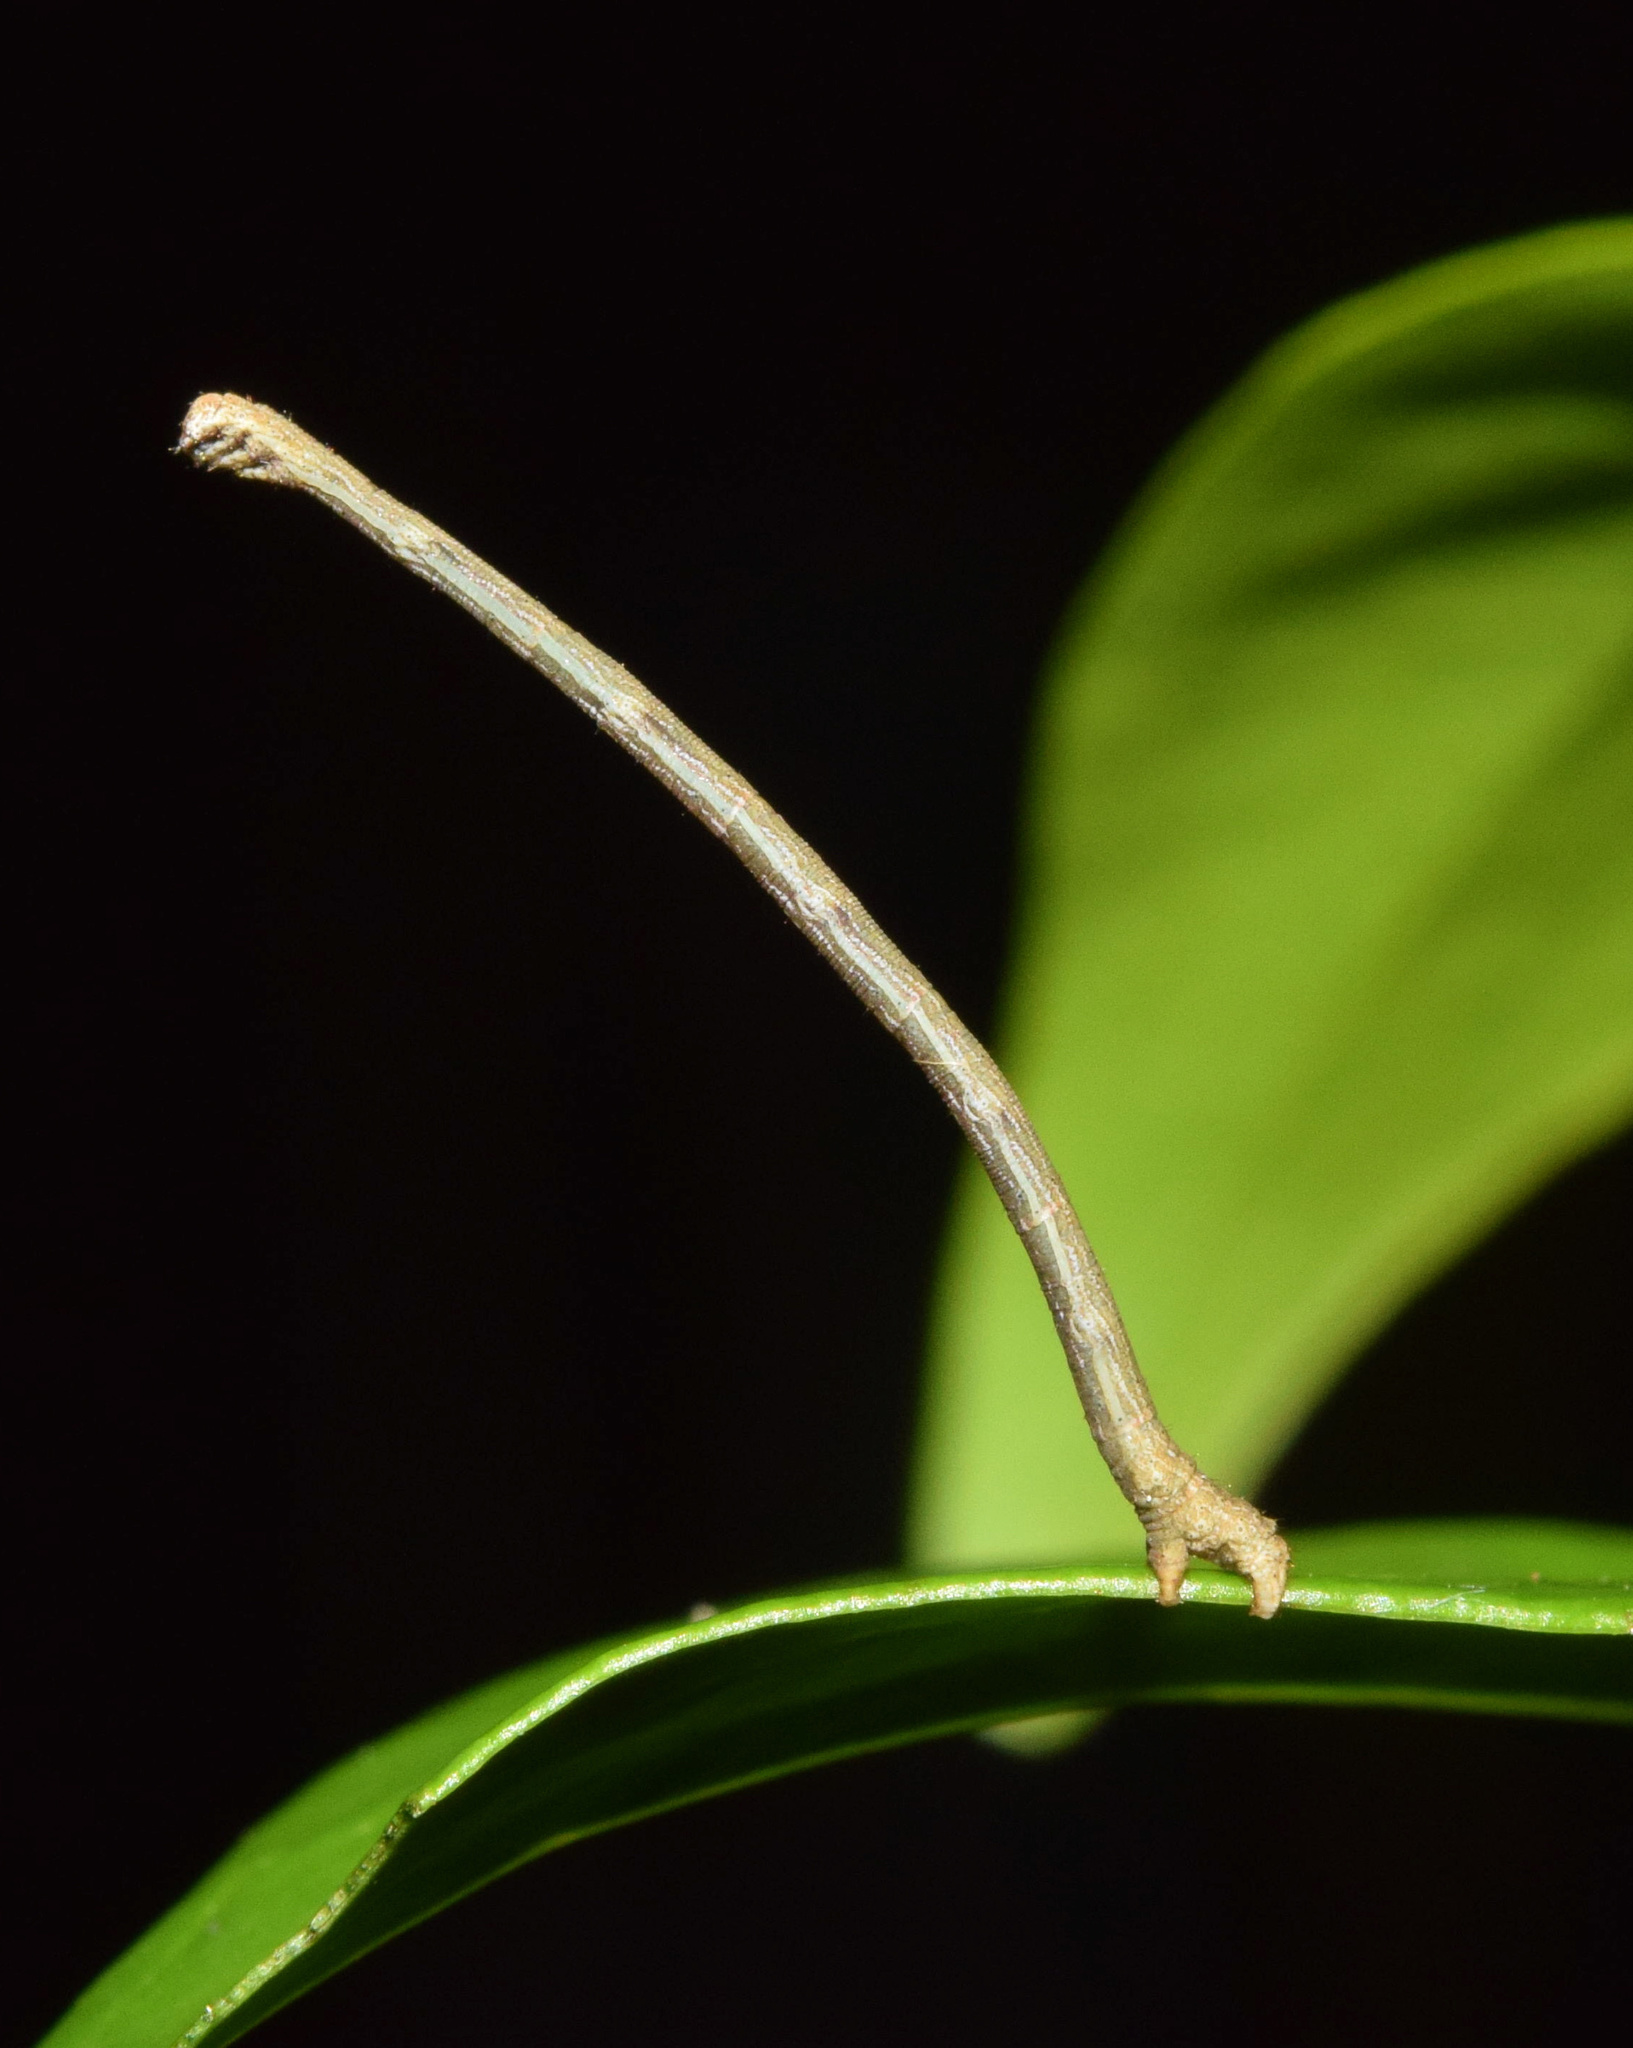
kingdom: Animalia
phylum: Arthropoda
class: Insecta
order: Lepidoptera
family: Geometridae
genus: Problepsis
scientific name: Problepsis digammata
